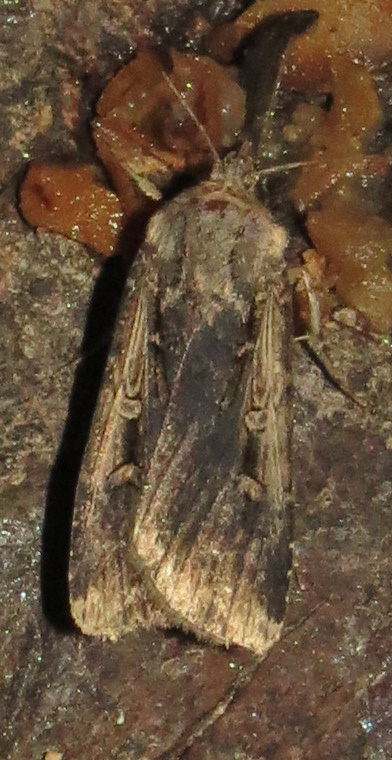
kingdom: Animalia
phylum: Arthropoda
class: Insecta
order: Lepidoptera
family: Noctuidae
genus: Feltia
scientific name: Feltia subterranea
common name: Granulate cutworm
